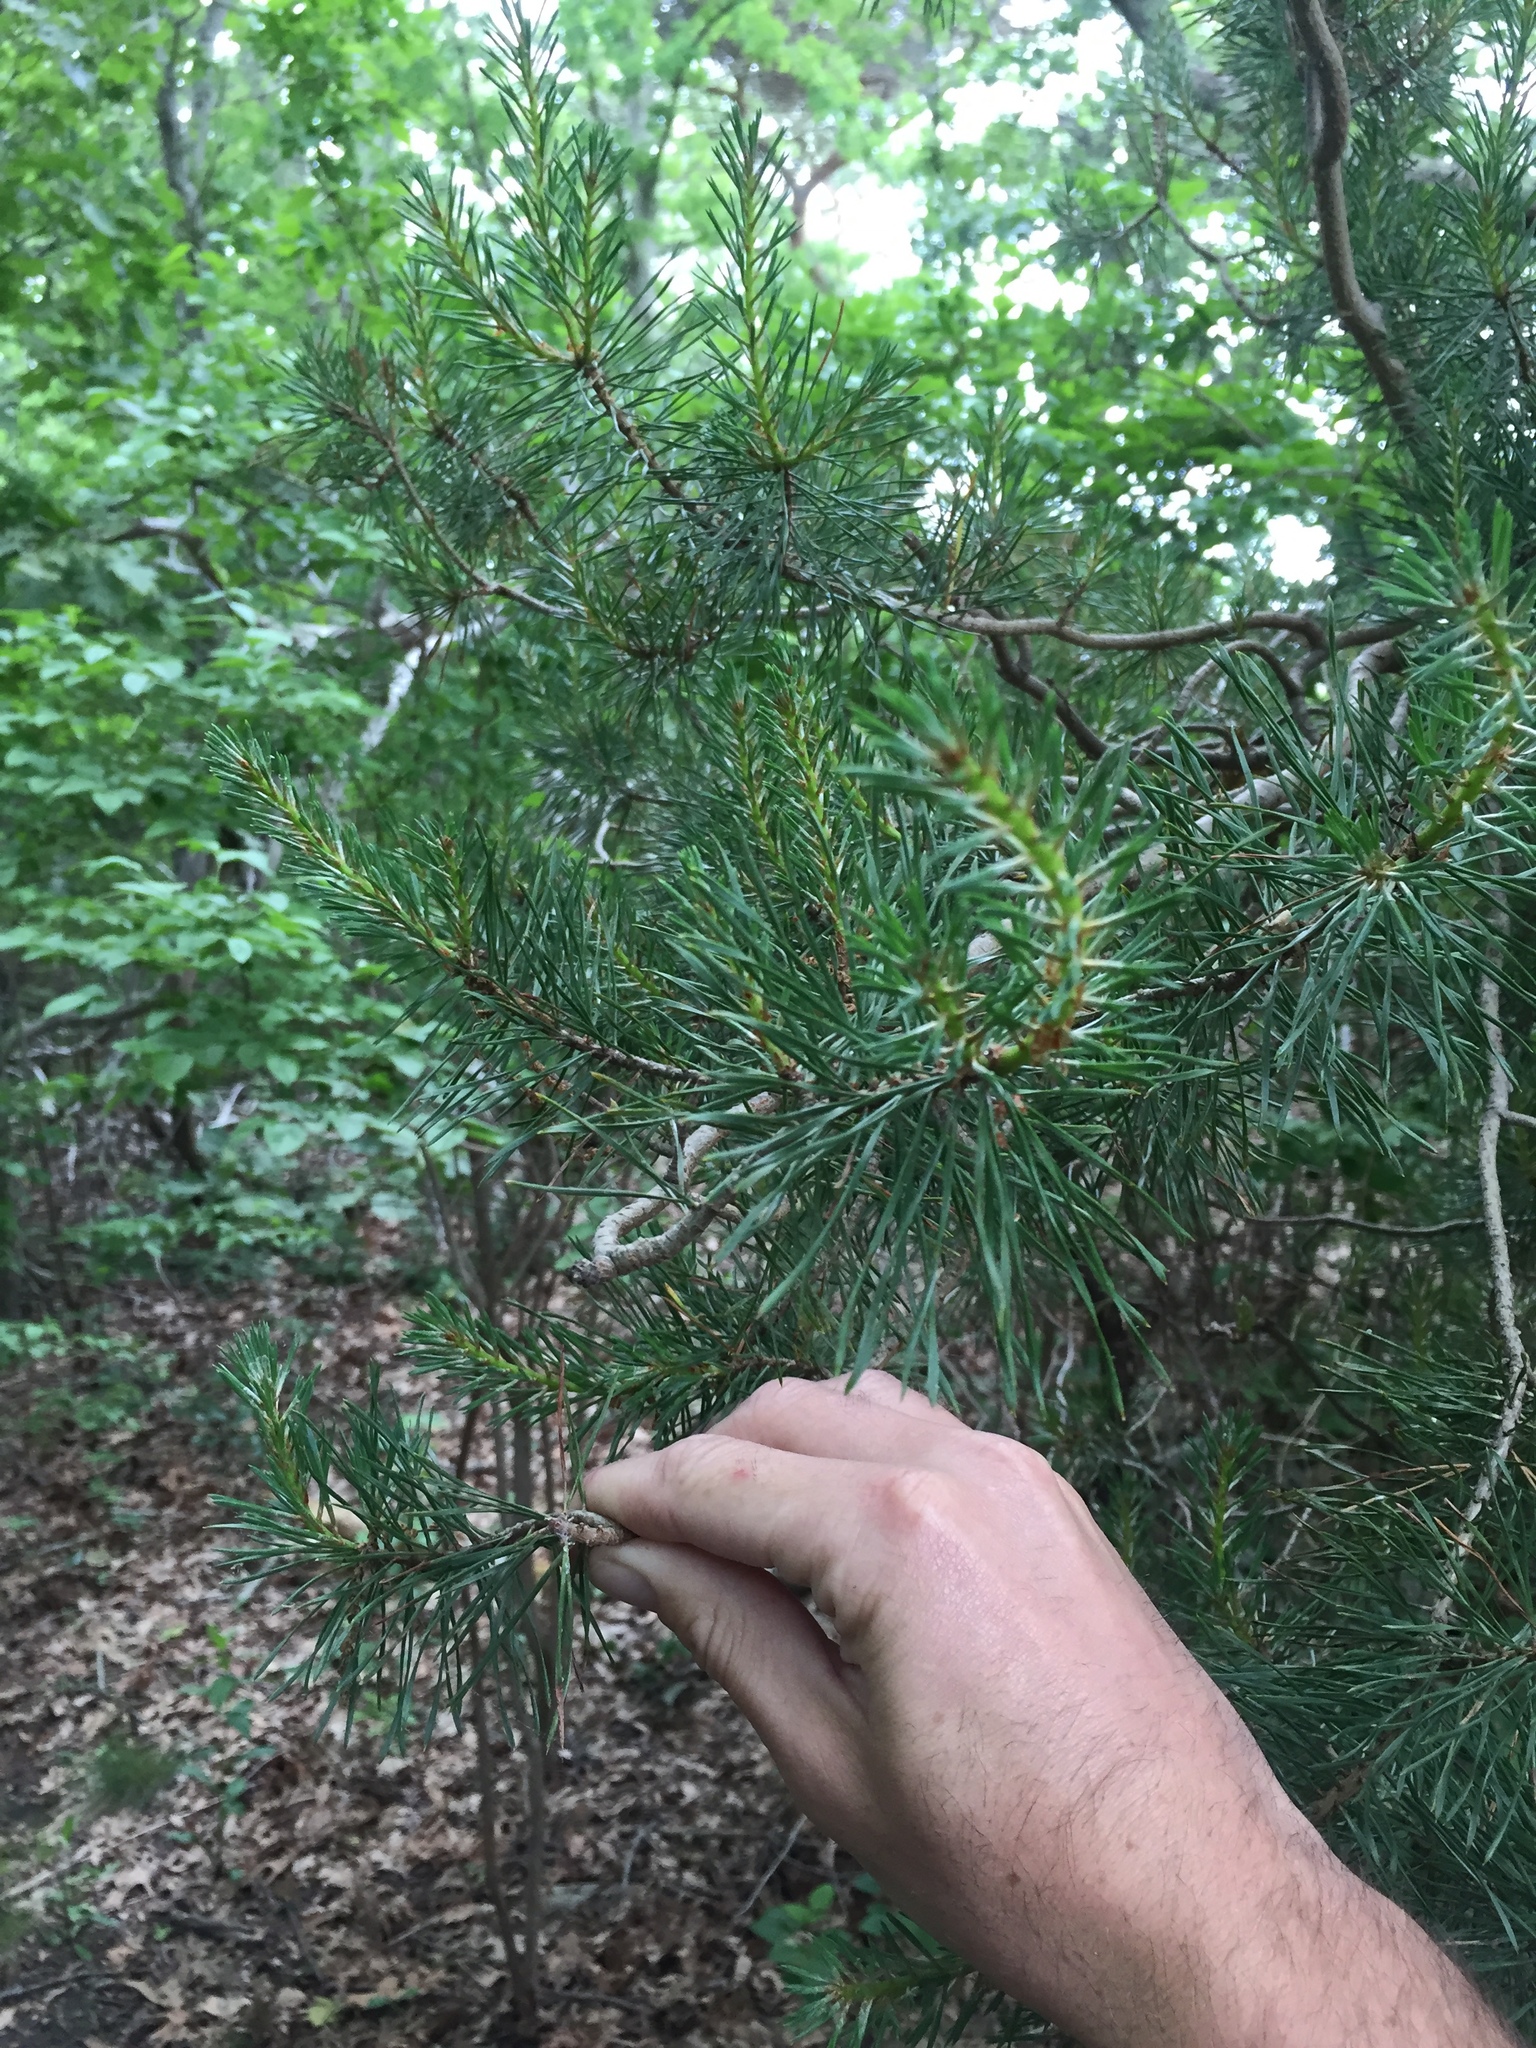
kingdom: Plantae
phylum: Tracheophyta
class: Pinopsida
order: Pinales
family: Pinaceae
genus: Pinus
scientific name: Pinus sylvestris
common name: Scots pine
